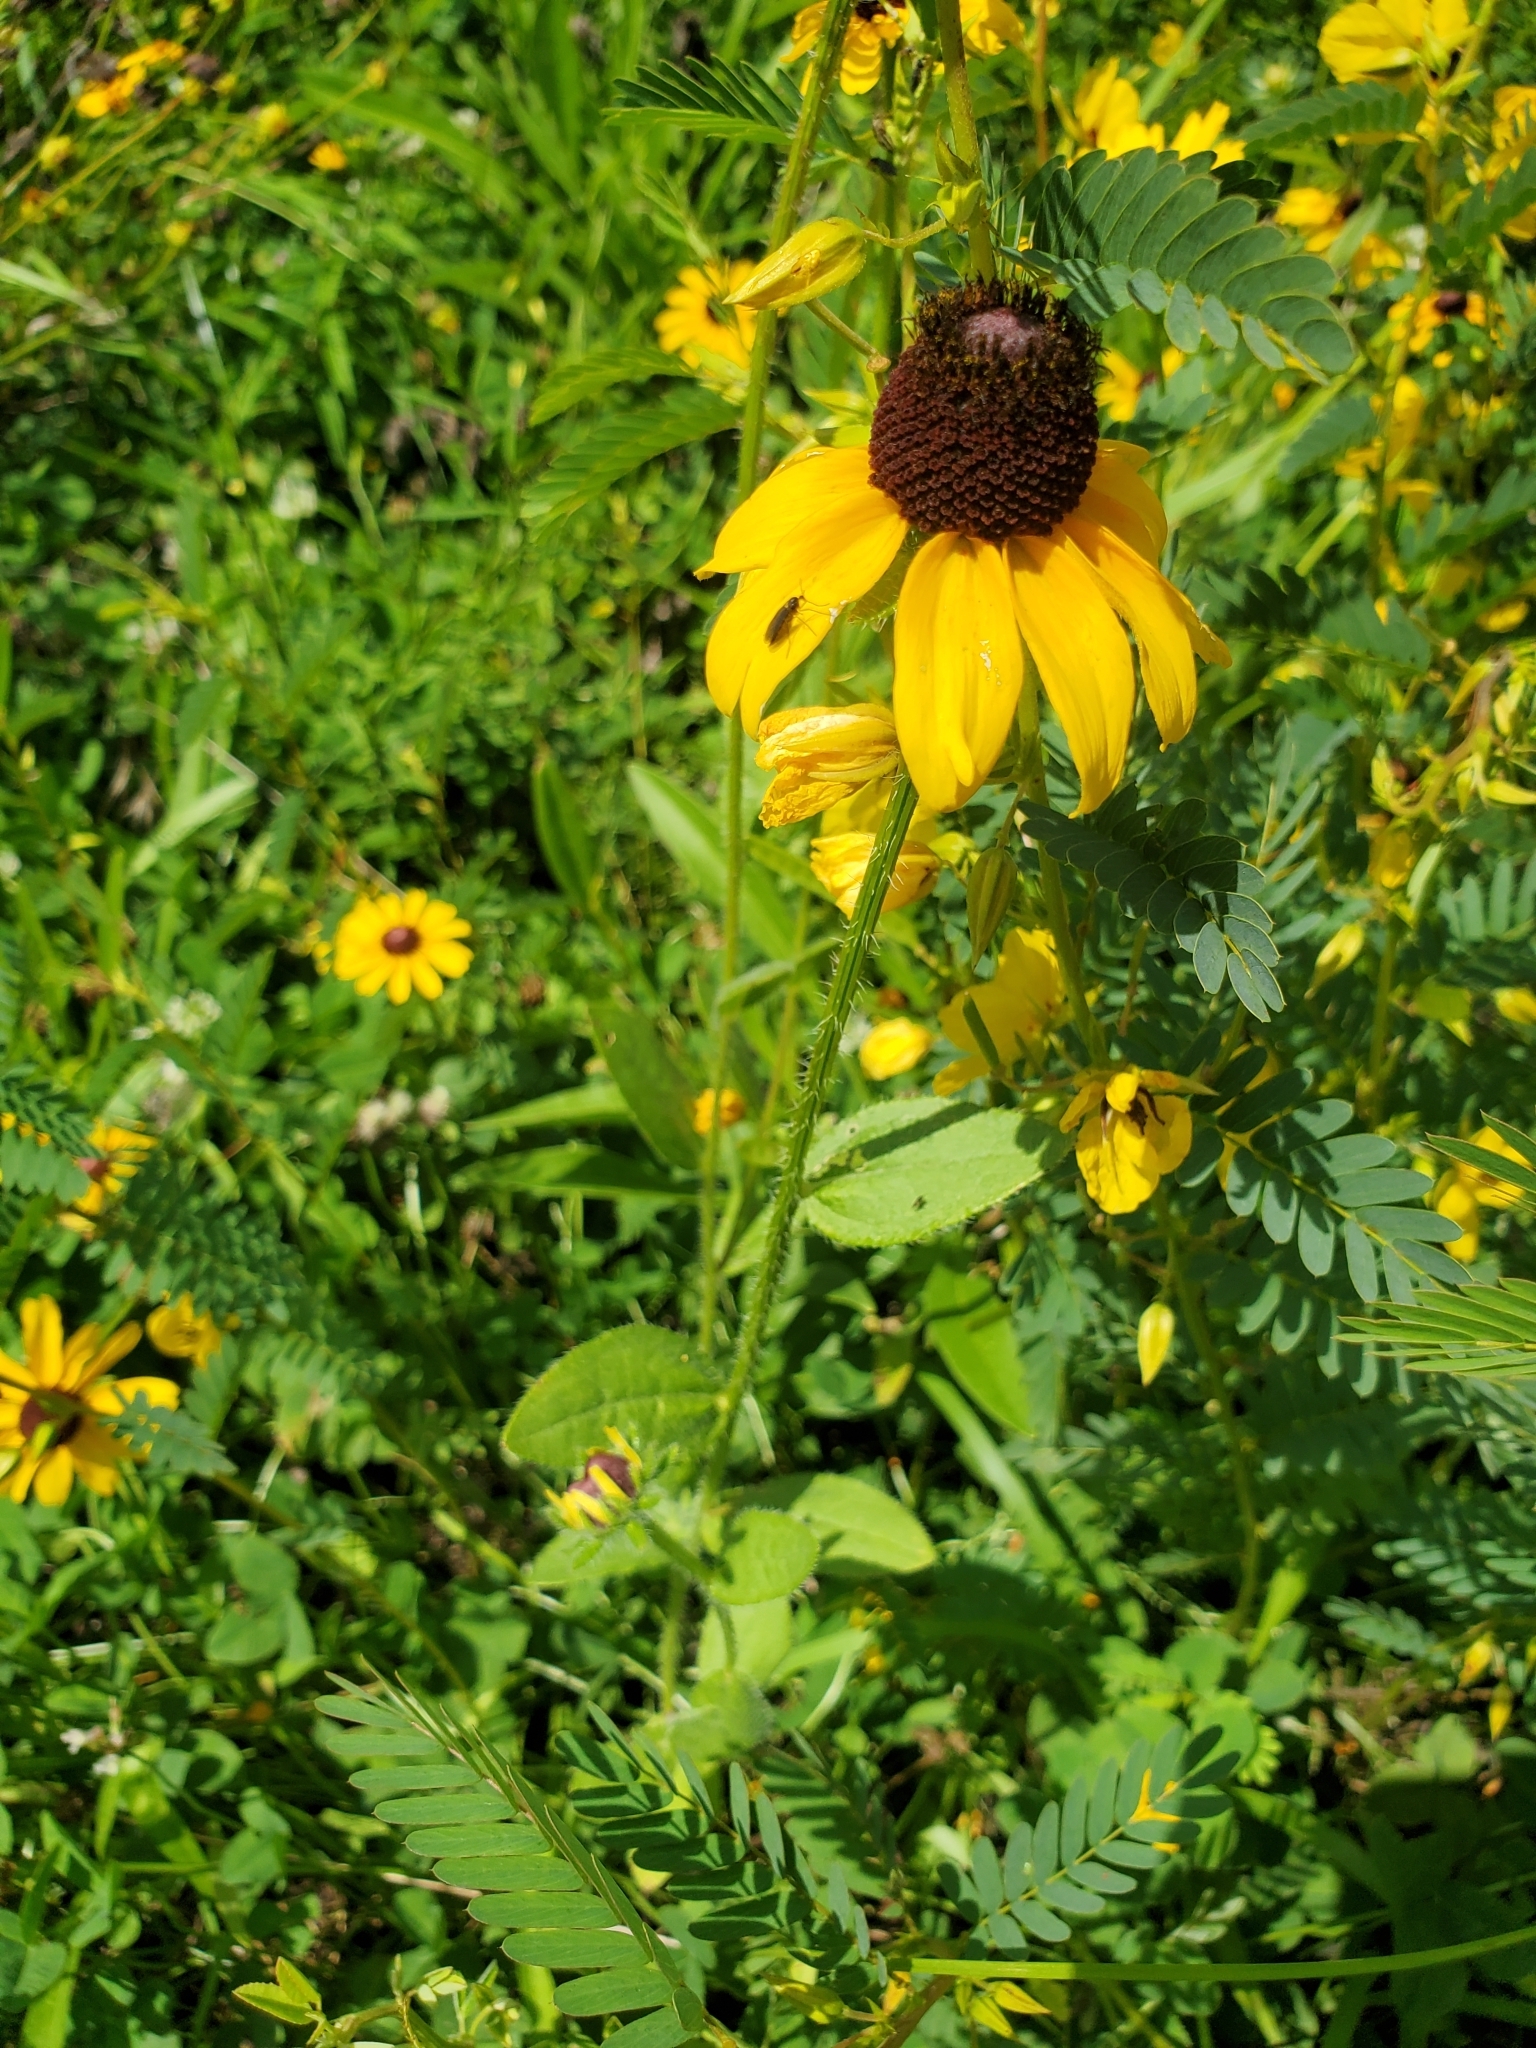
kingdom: Plantae
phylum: Tracheophyta
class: Magnoliopsida
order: Asterales
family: Asteraceae
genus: Rudbeckia
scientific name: Rudbeckia hirta
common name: Black-eyed-susan
